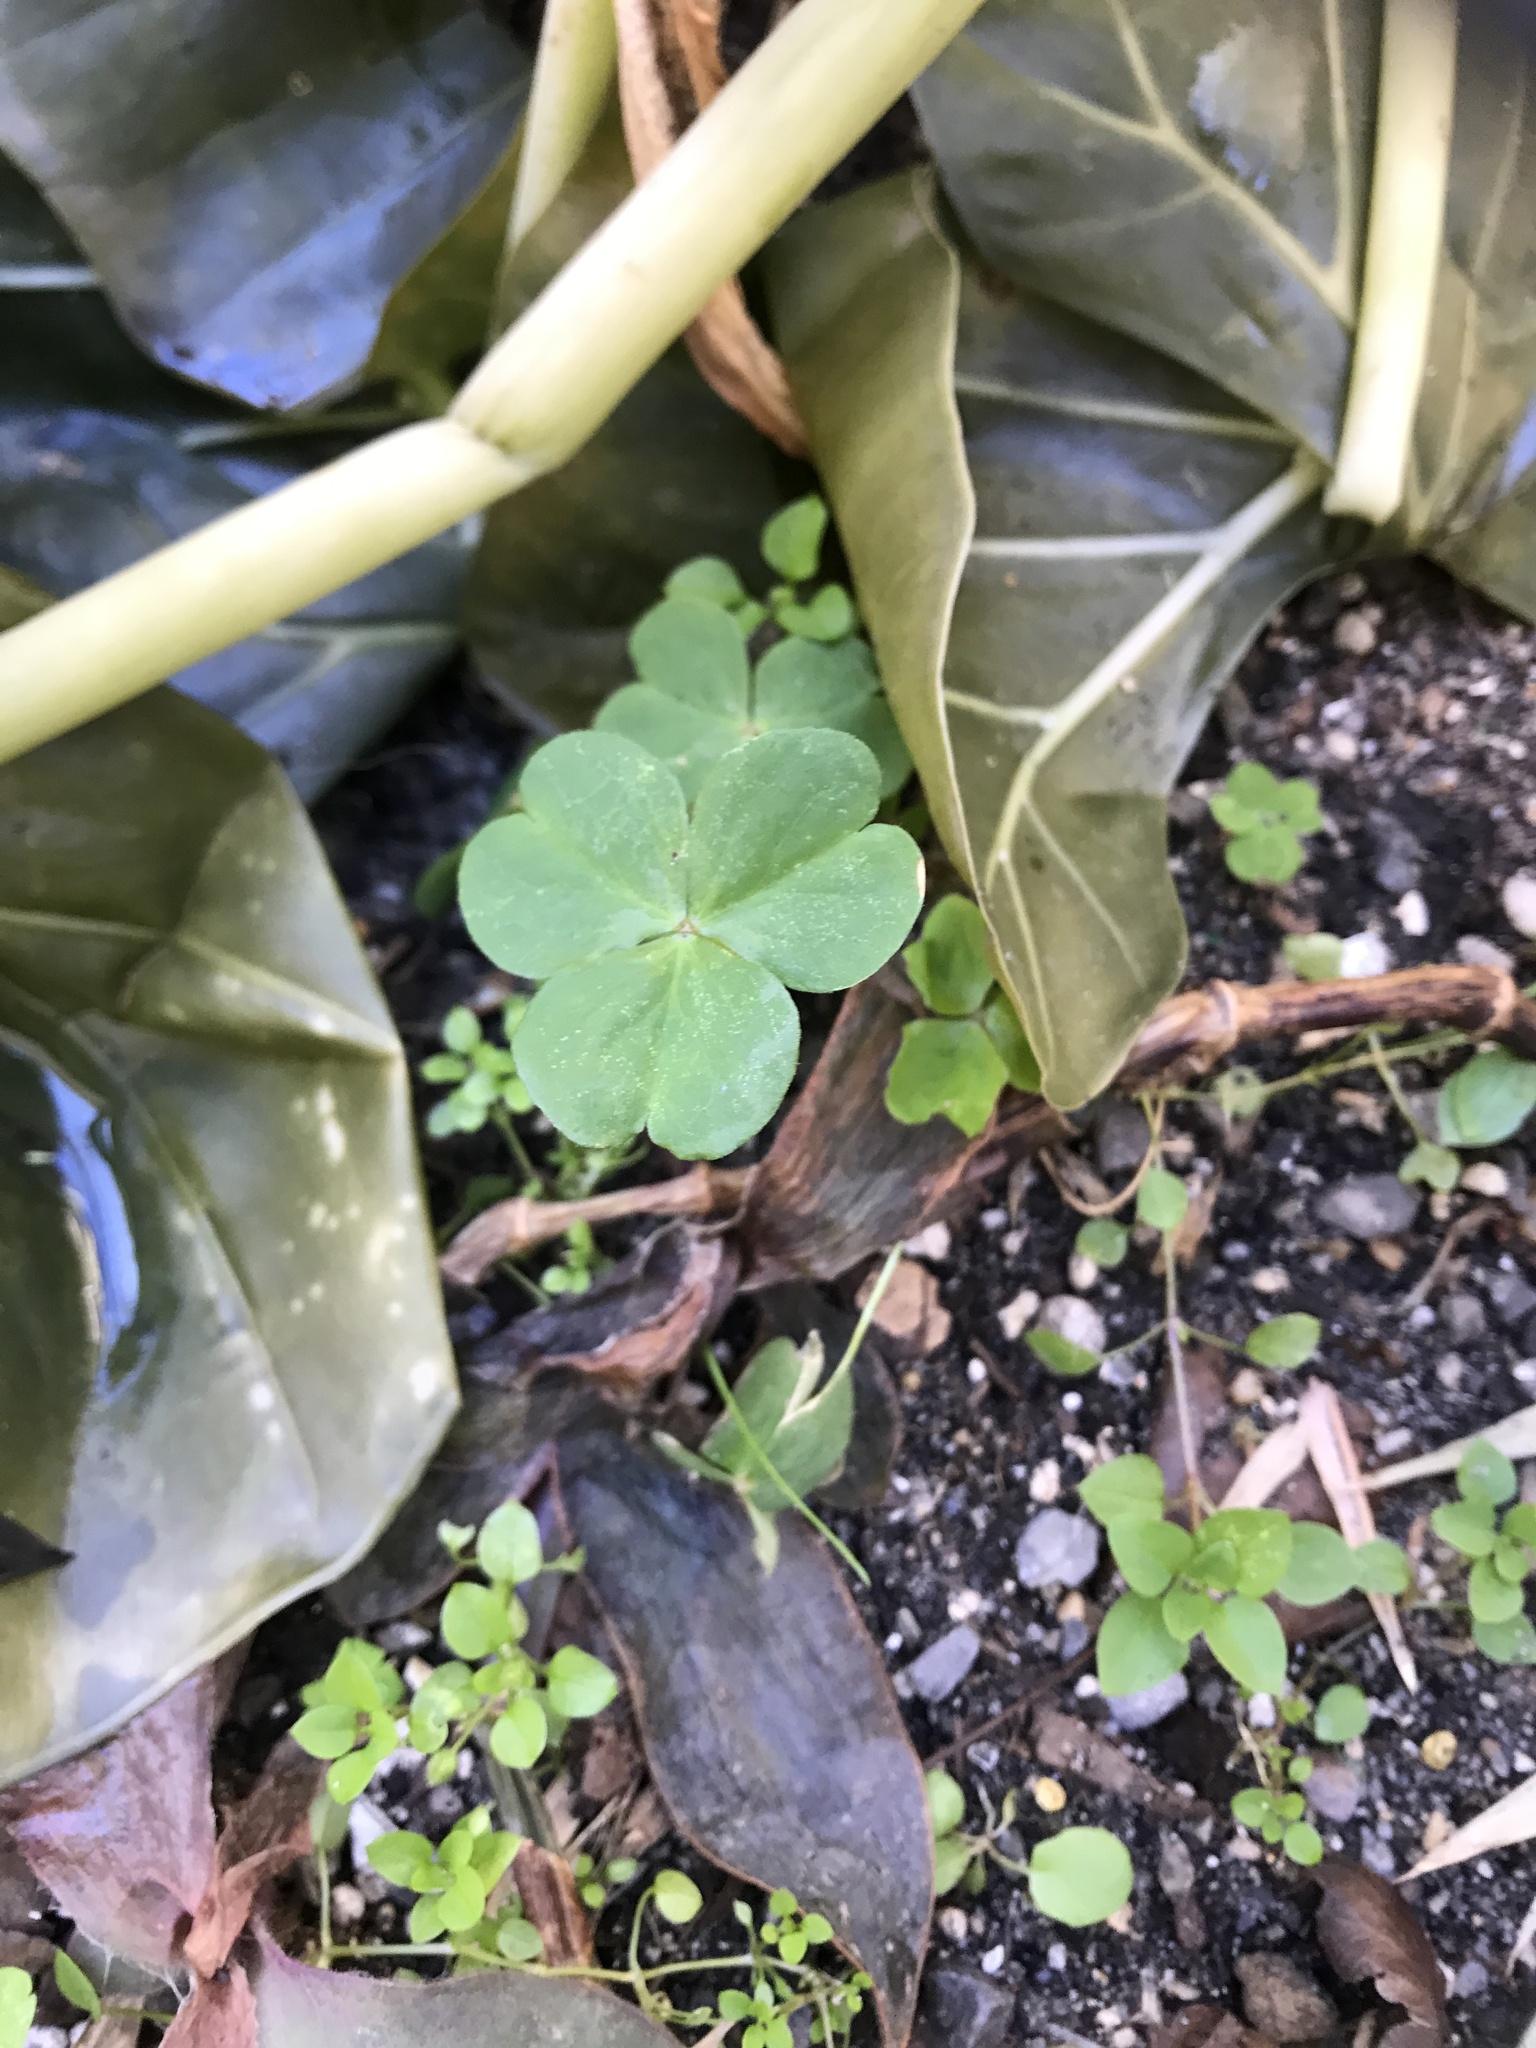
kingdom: Plantae
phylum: Tracheophyta
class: Magnoliopsida
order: Oxalidales
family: Oxalidaceae
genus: Oxalis
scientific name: Oxalis debilis
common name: Large-flowered pink-sorrel
